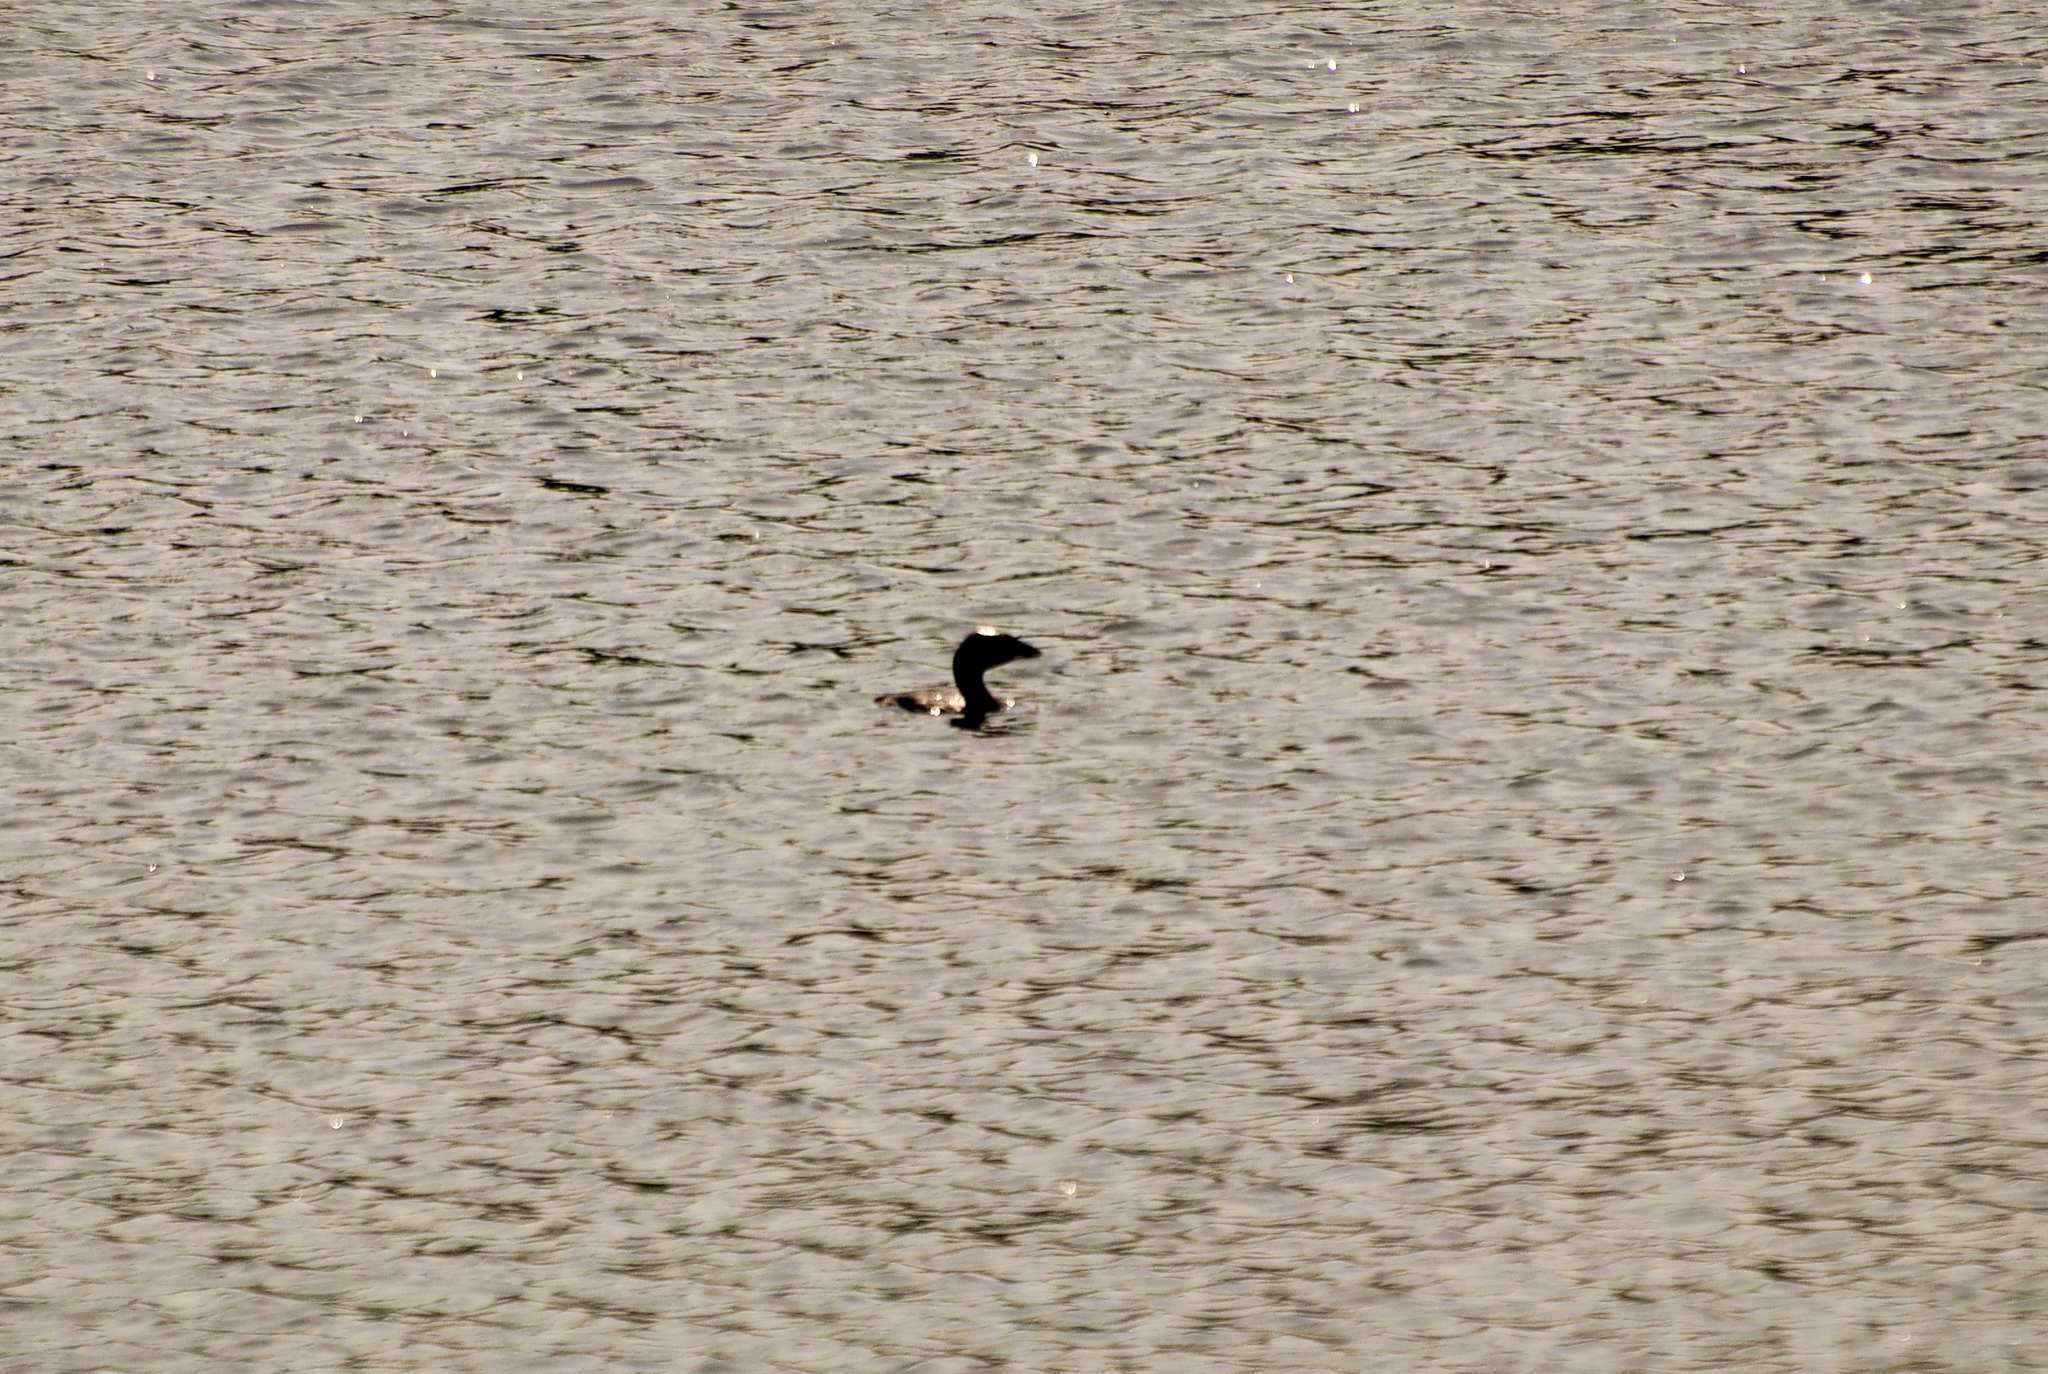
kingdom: Animalia
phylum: Chordata
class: Aves
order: Podicipediformes
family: Podicipedidae
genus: Podilymbus
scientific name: Podilymbus podiceps
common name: Pied-billed grebe
